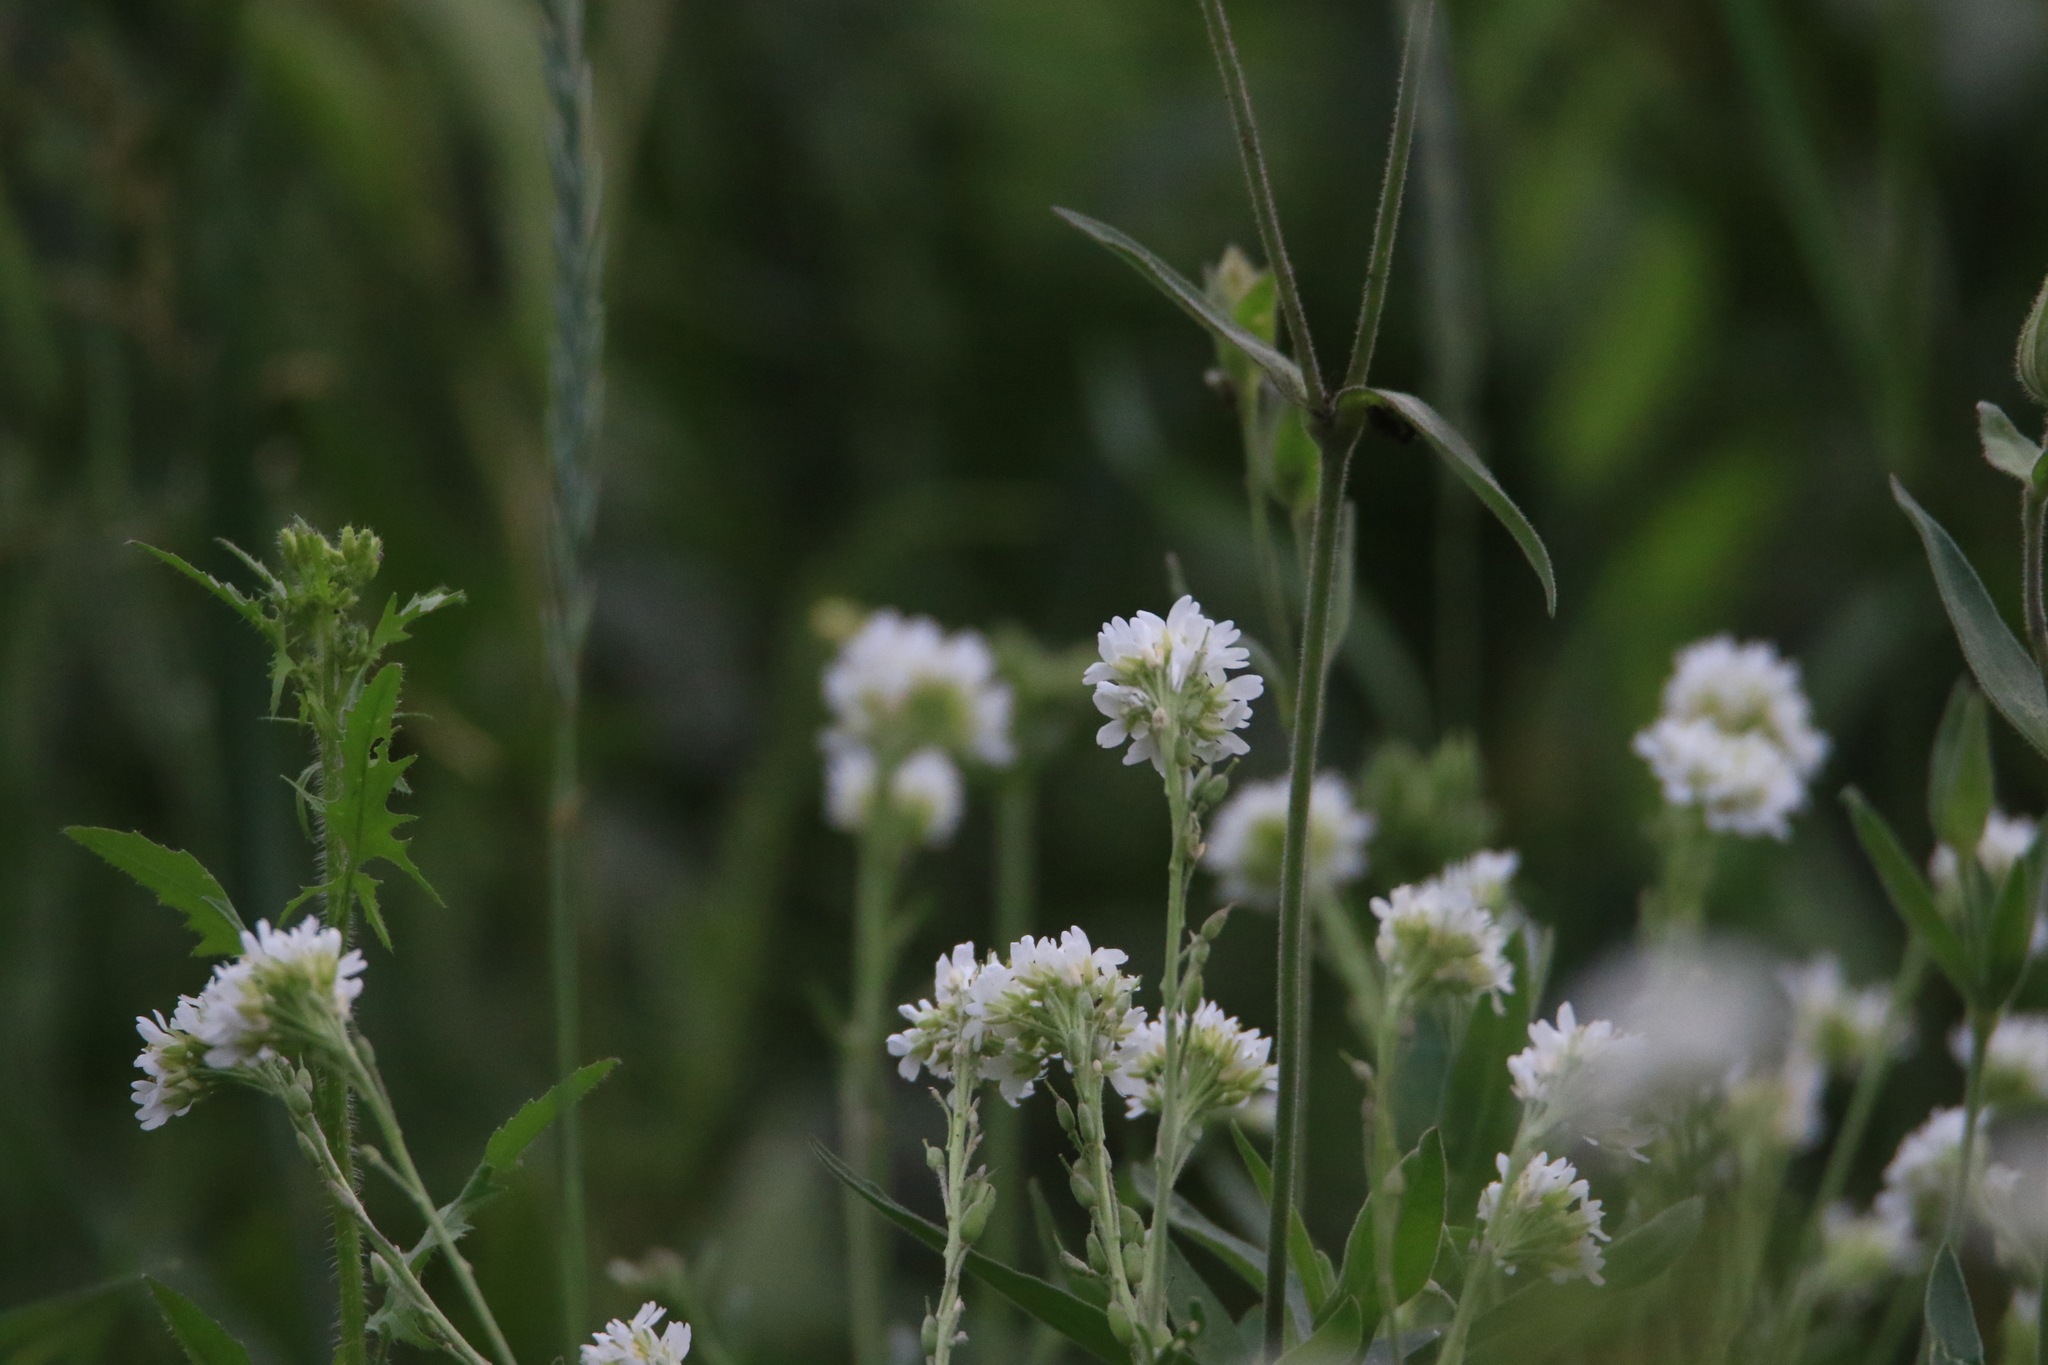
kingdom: Plantae
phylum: Tracheophyta
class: Magnoliopsida
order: Brassicales
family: Brassicaceae
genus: Berteroa
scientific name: Berteroa incana
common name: Hoary alison
